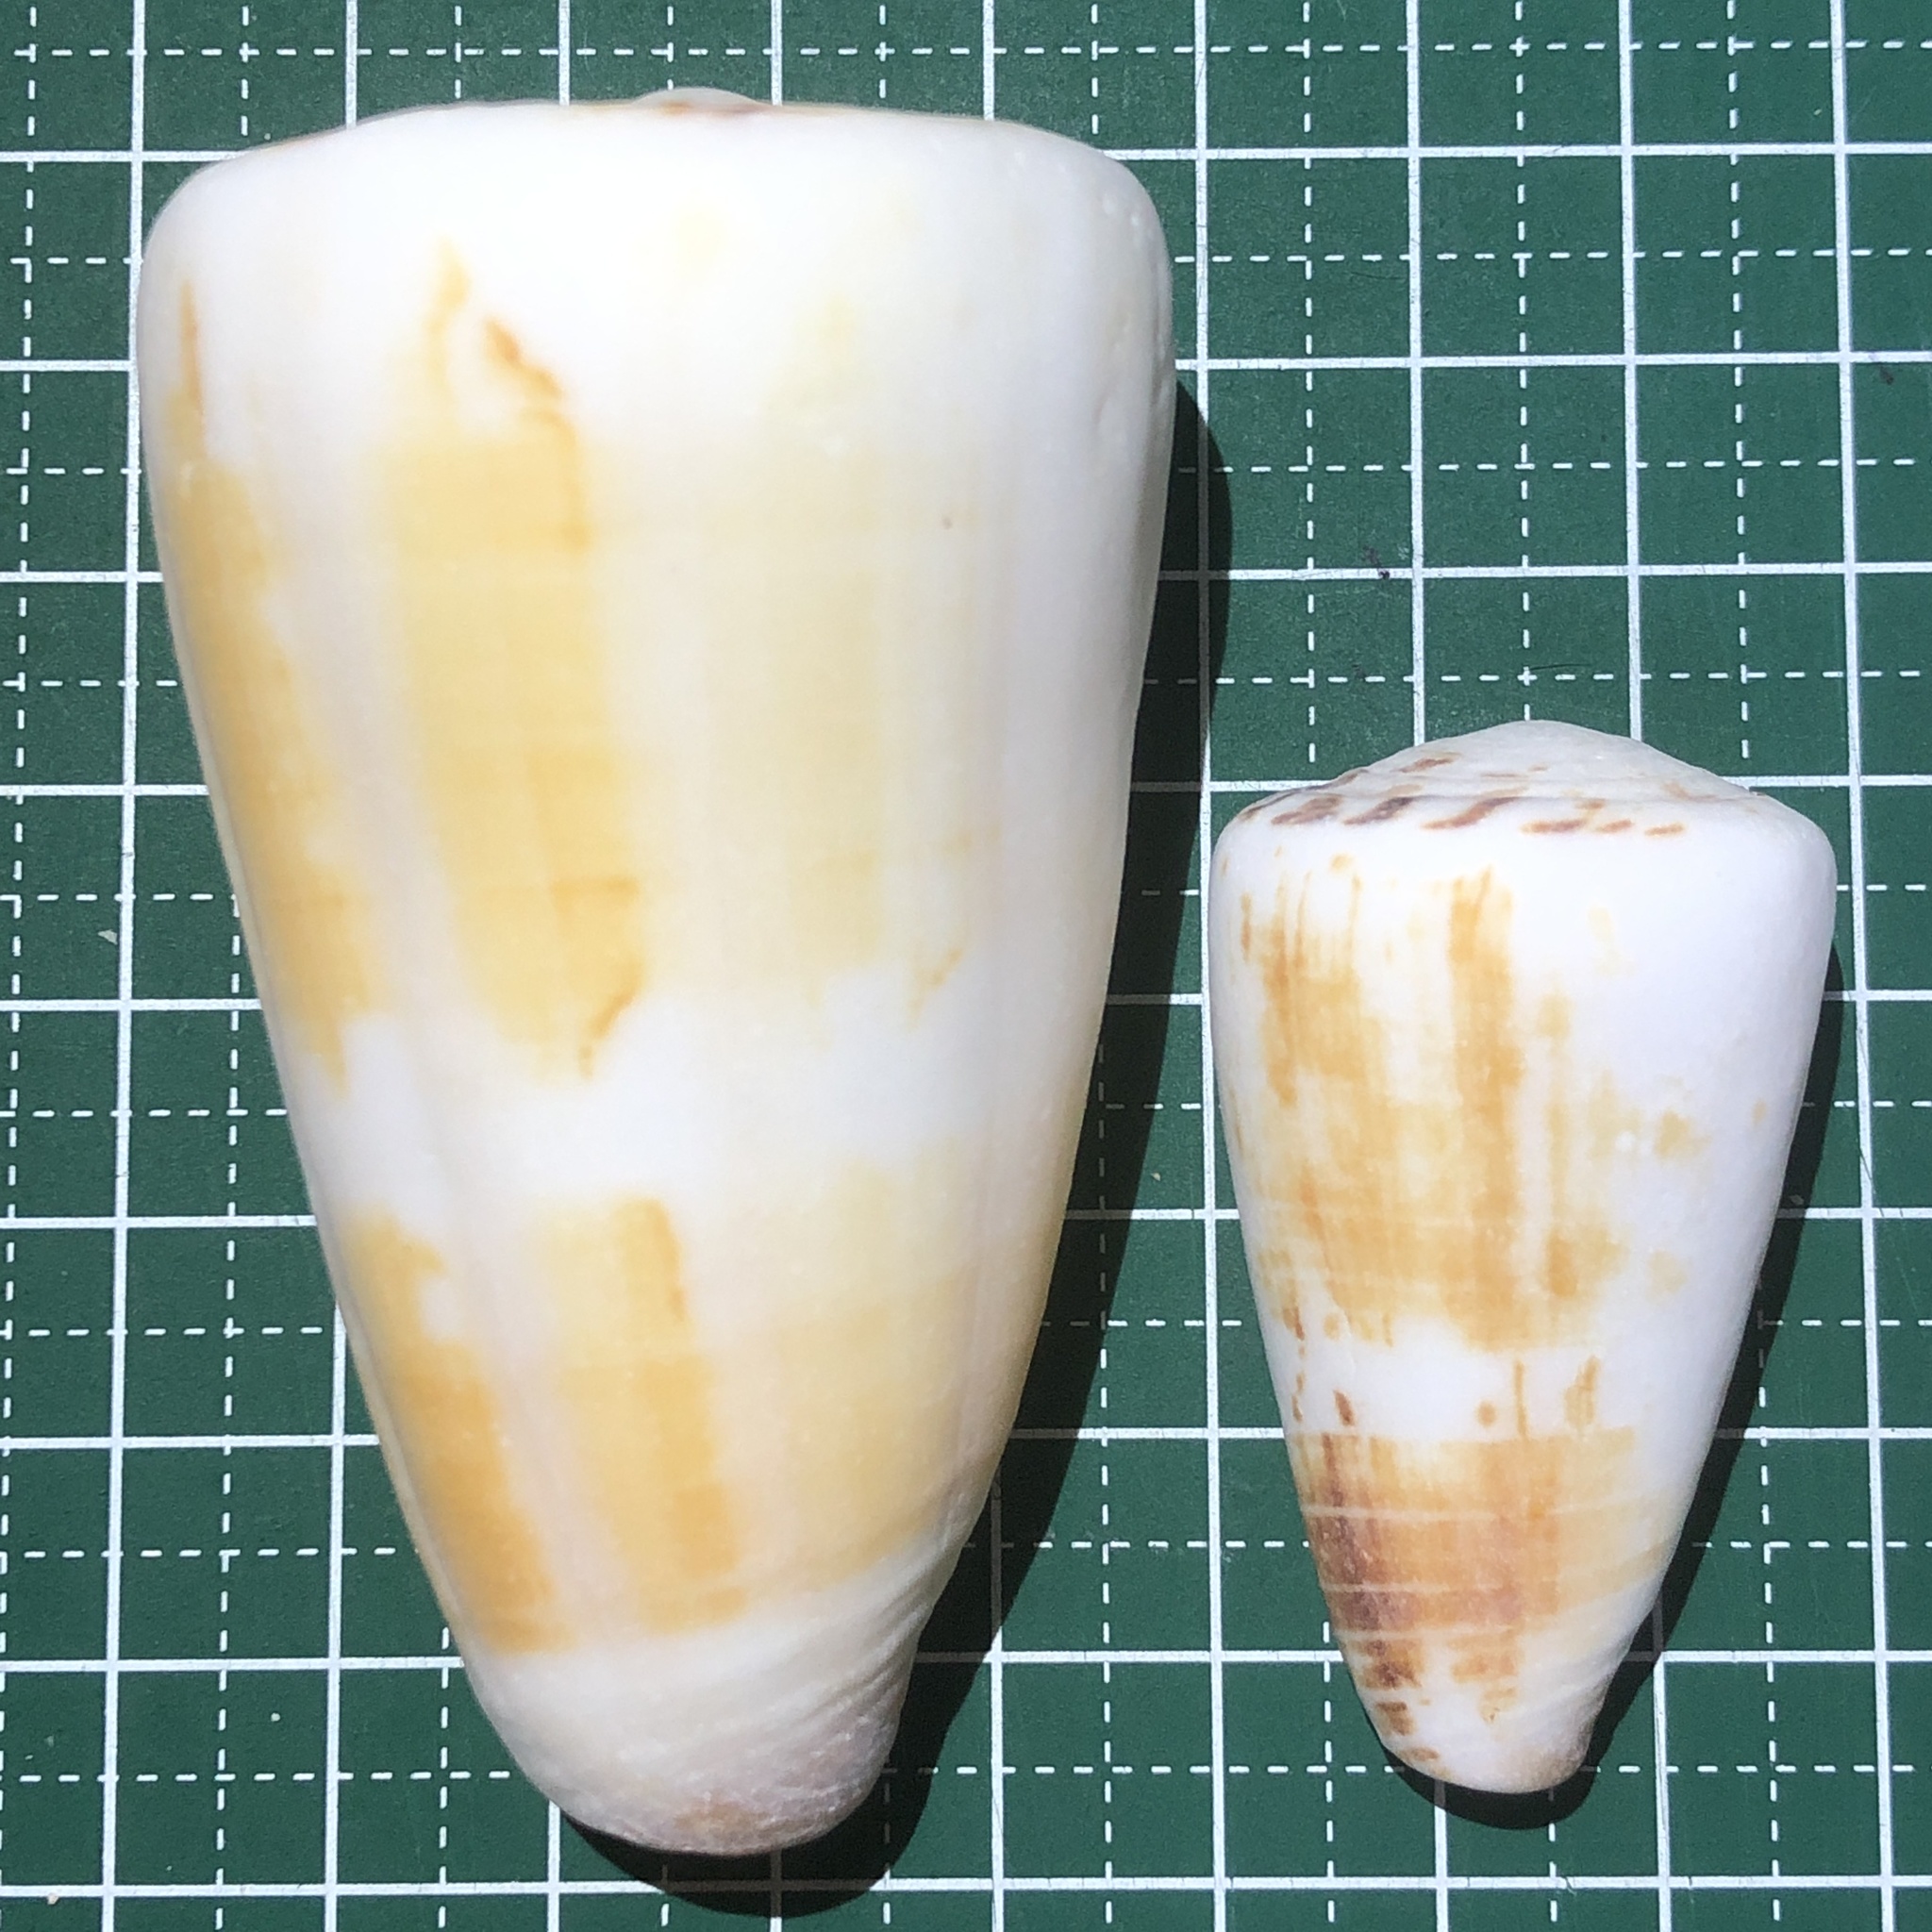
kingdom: Animalia
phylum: Mollusca
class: Gastropoda
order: Neogastropoda
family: Conidae
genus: Conus
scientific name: Conus planorbis
